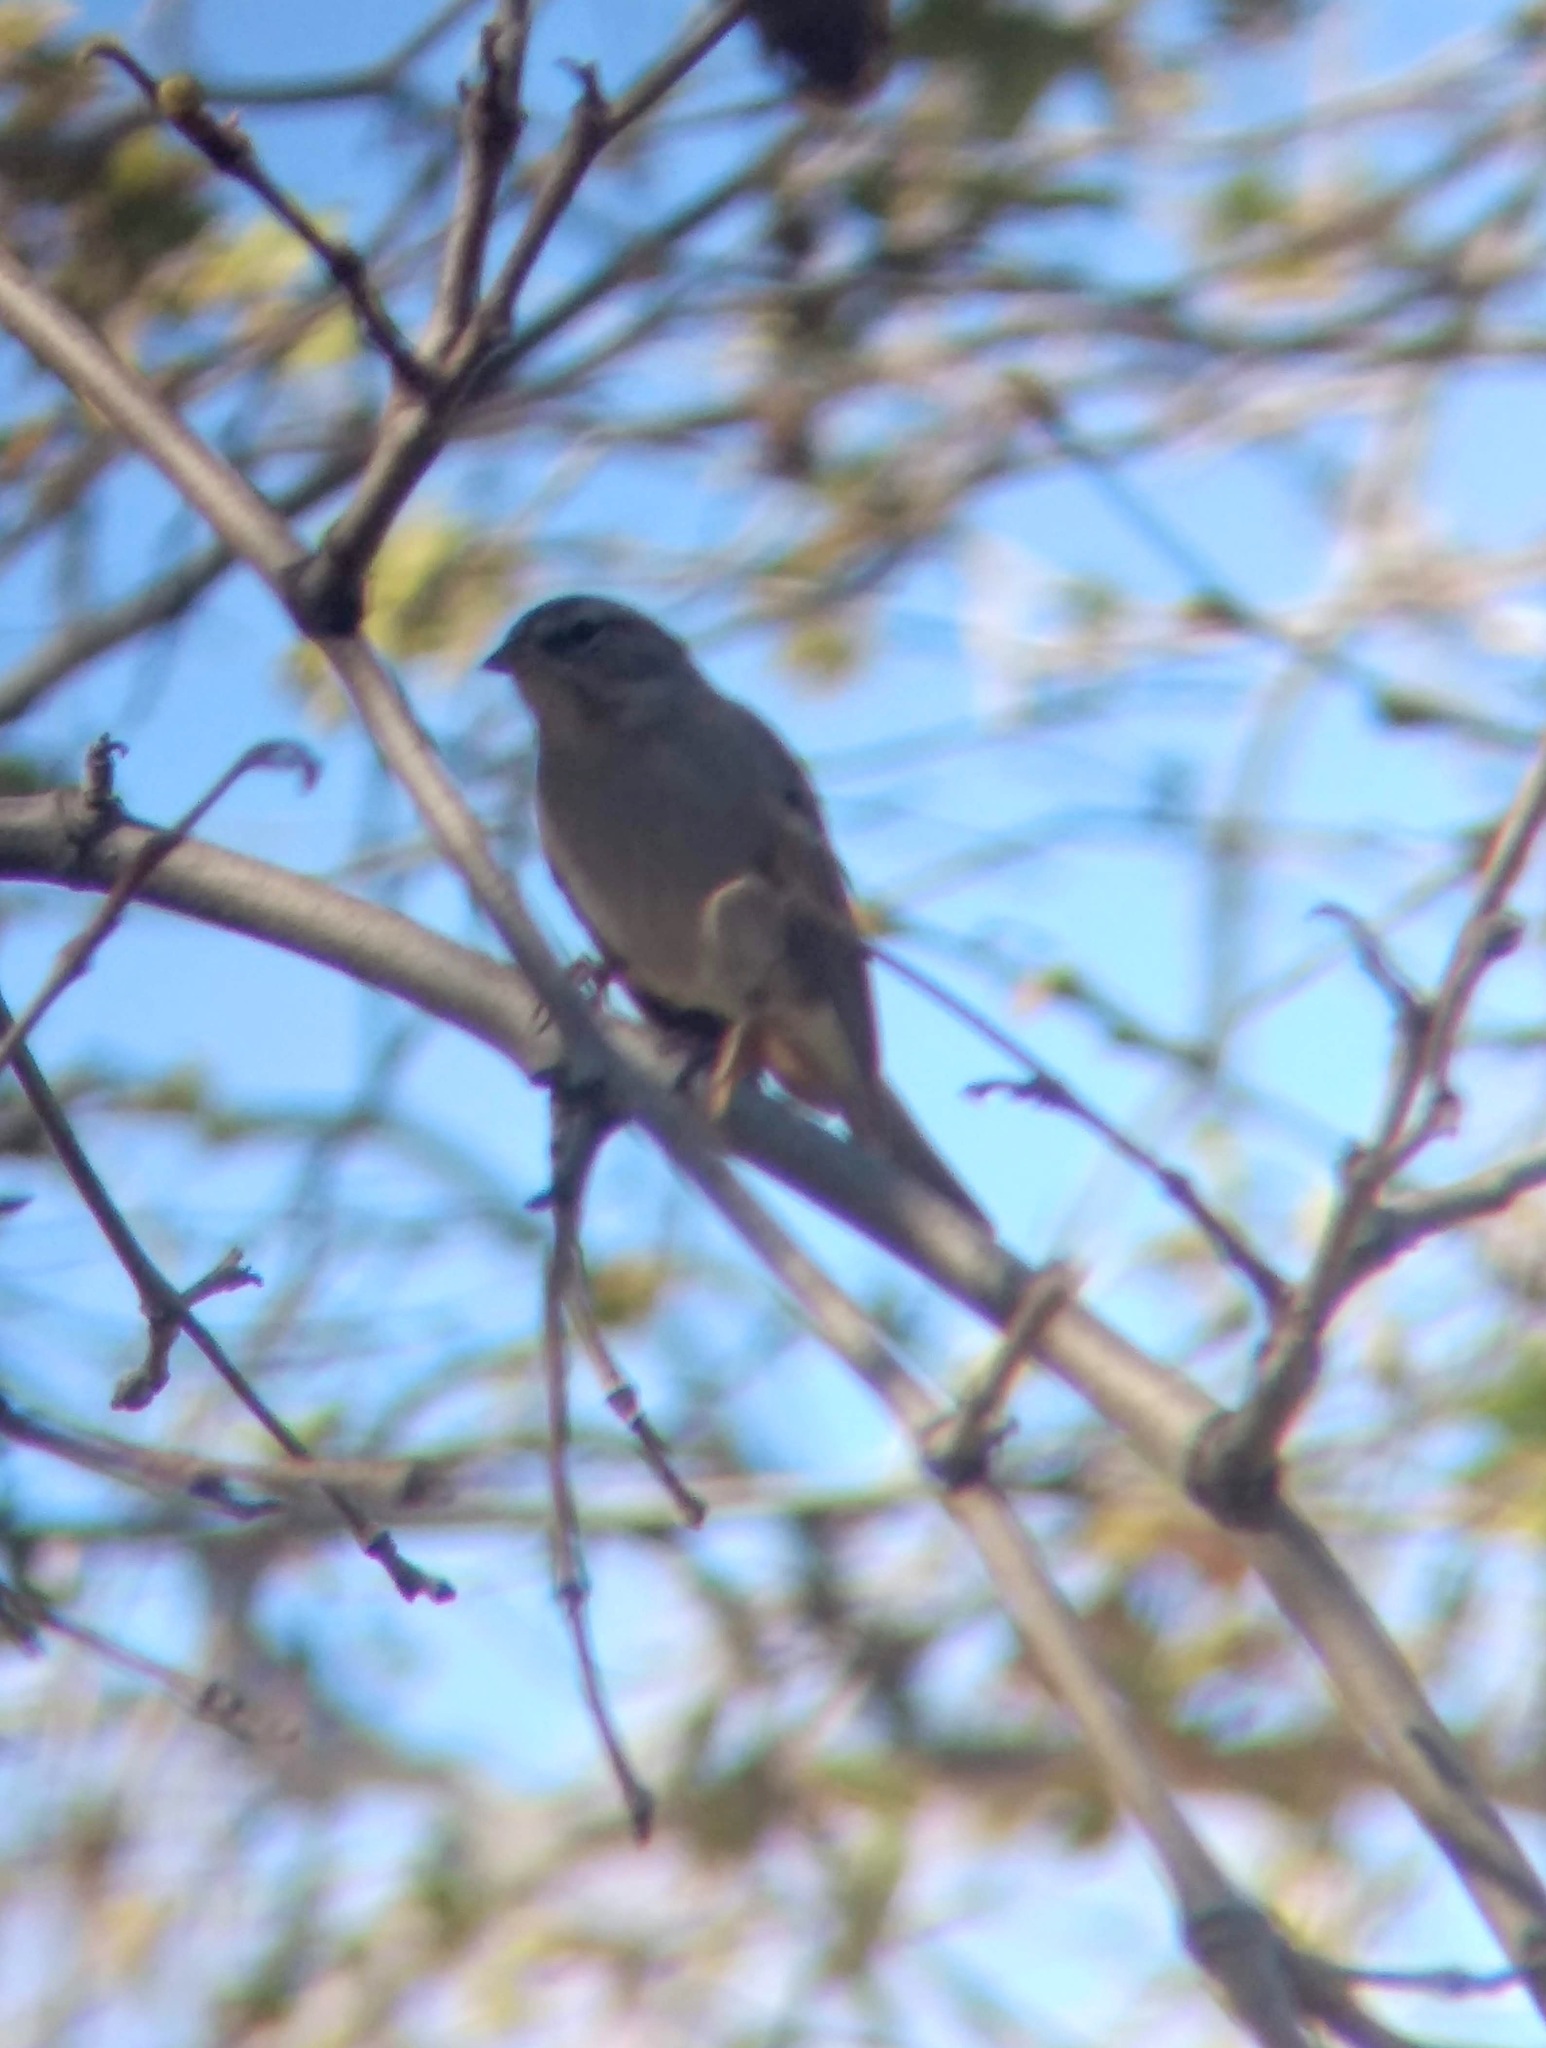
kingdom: Animalia
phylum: Chordata
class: Aves
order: Passeriformes
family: Passerellidae
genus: Spizella
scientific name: Spizella passerina
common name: Chipping sparrow
